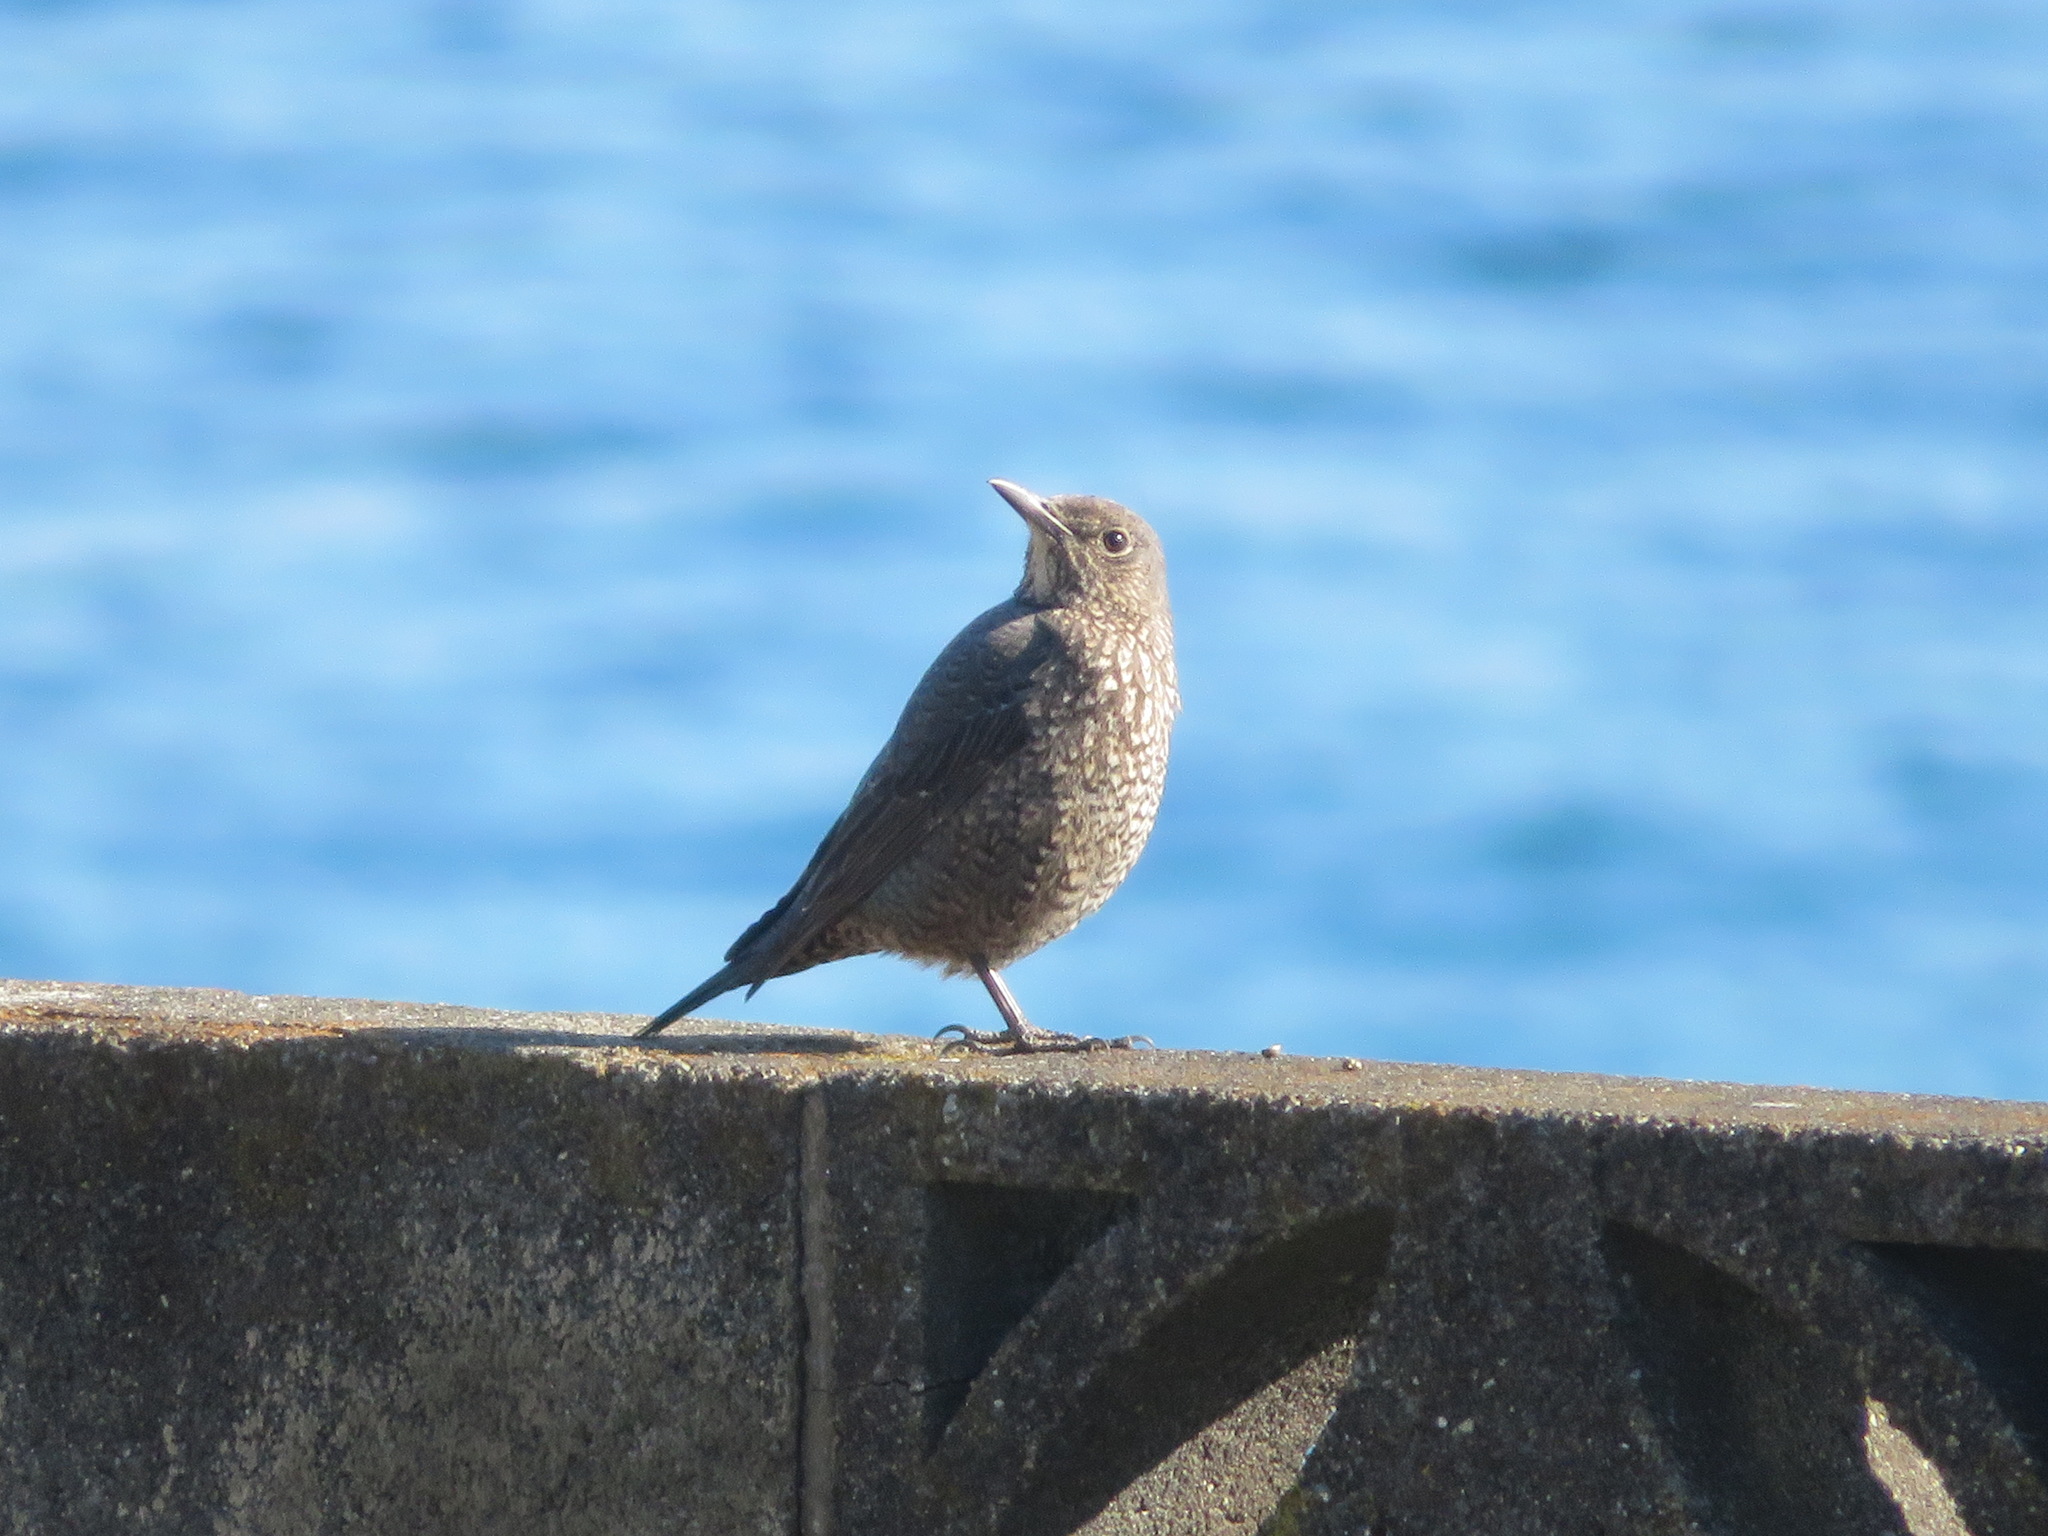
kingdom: Animalia
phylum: Chordata
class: Aves
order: Passeriformes
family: Muscicapidae
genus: Monticola
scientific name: Monticola solitarius
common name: Blue rock thrush
